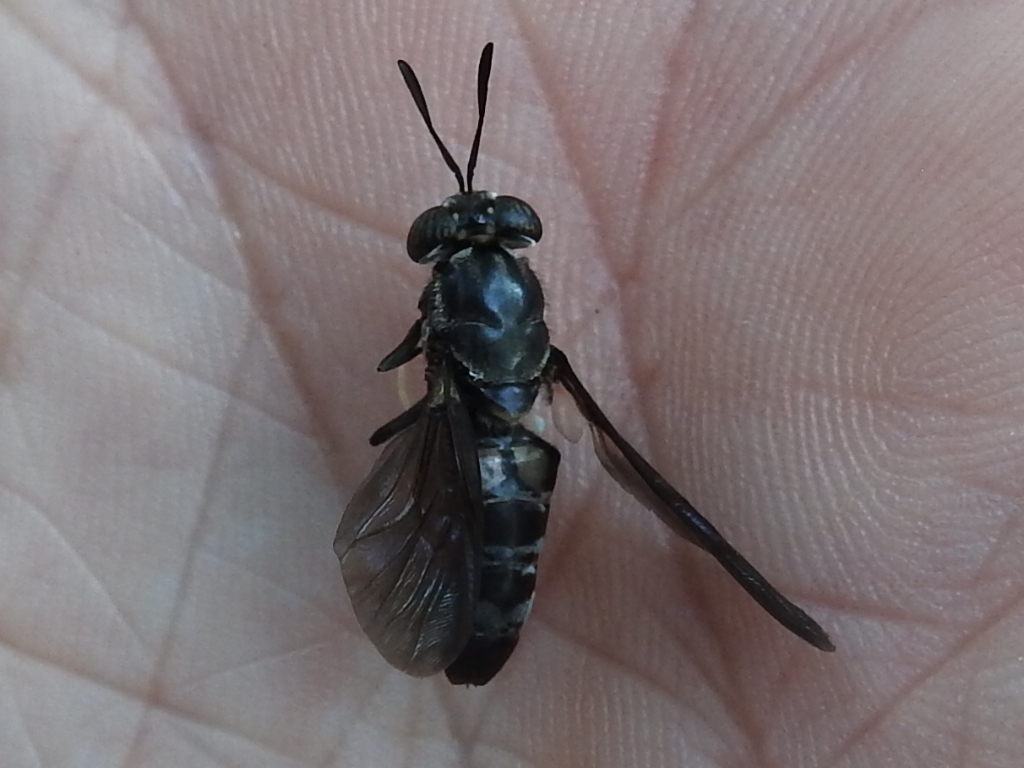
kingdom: Animalia
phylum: Arthropoda
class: Insecta
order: Diptera
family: Stratiomyidae
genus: Hermetia
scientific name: Hermetia illucens
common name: Black soldier fly
